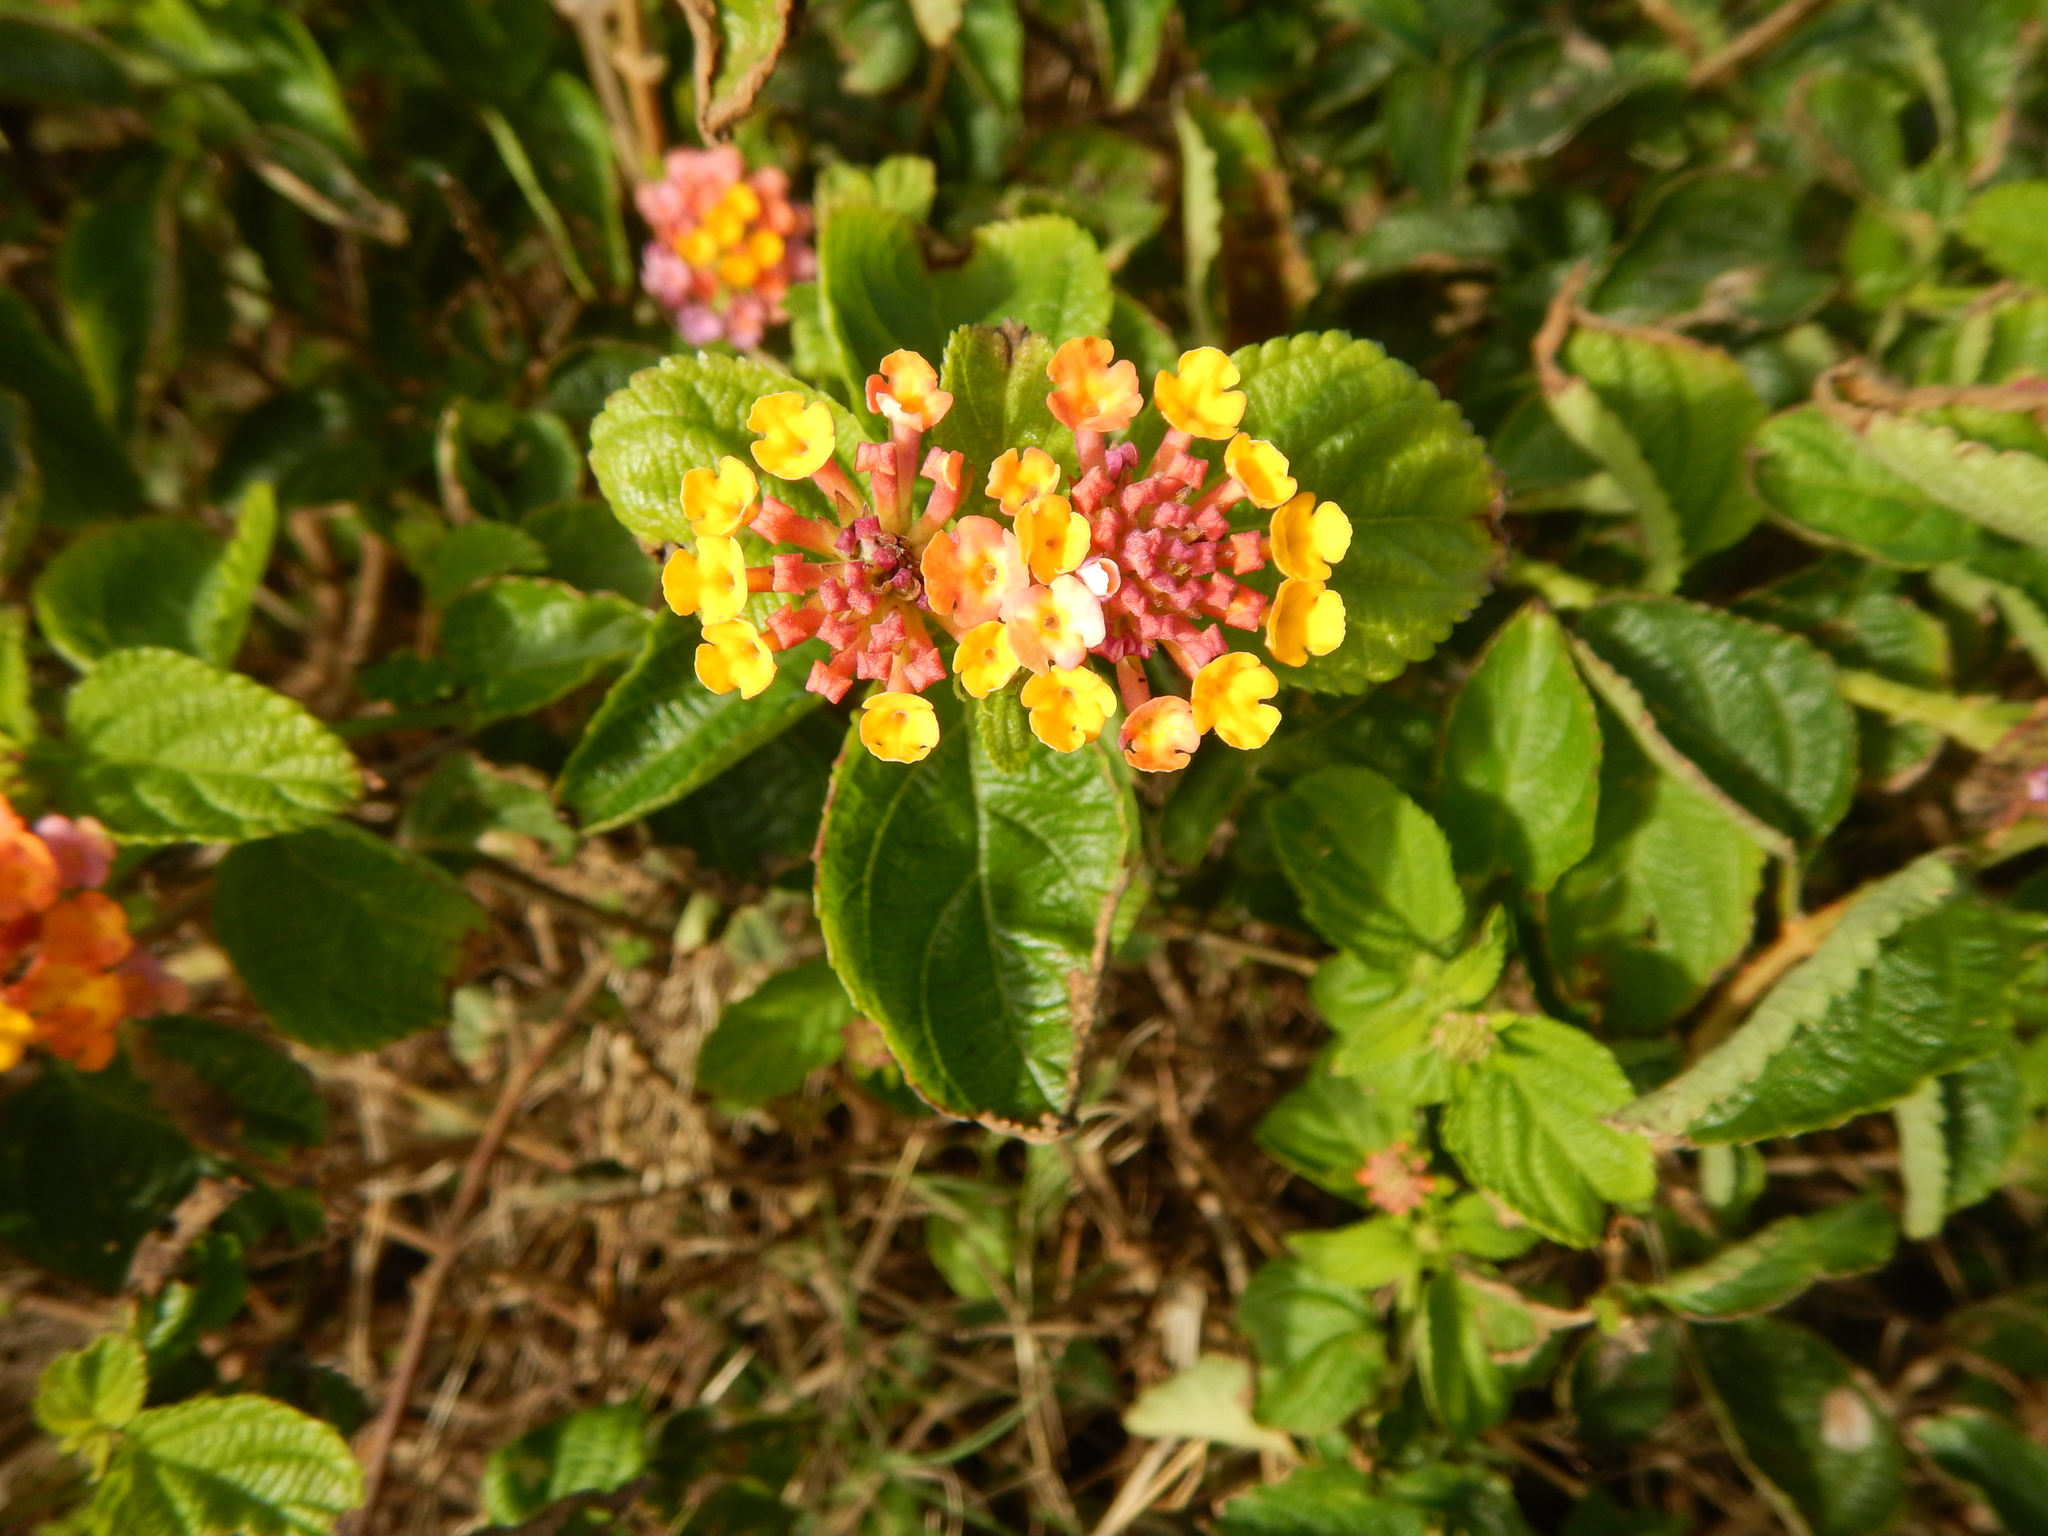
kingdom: Plantae
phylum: Tracheophyta
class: Magnoliopsida
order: Lamiales
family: Verbenaceae
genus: Lantana
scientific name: Lantana camara
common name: Lantana
